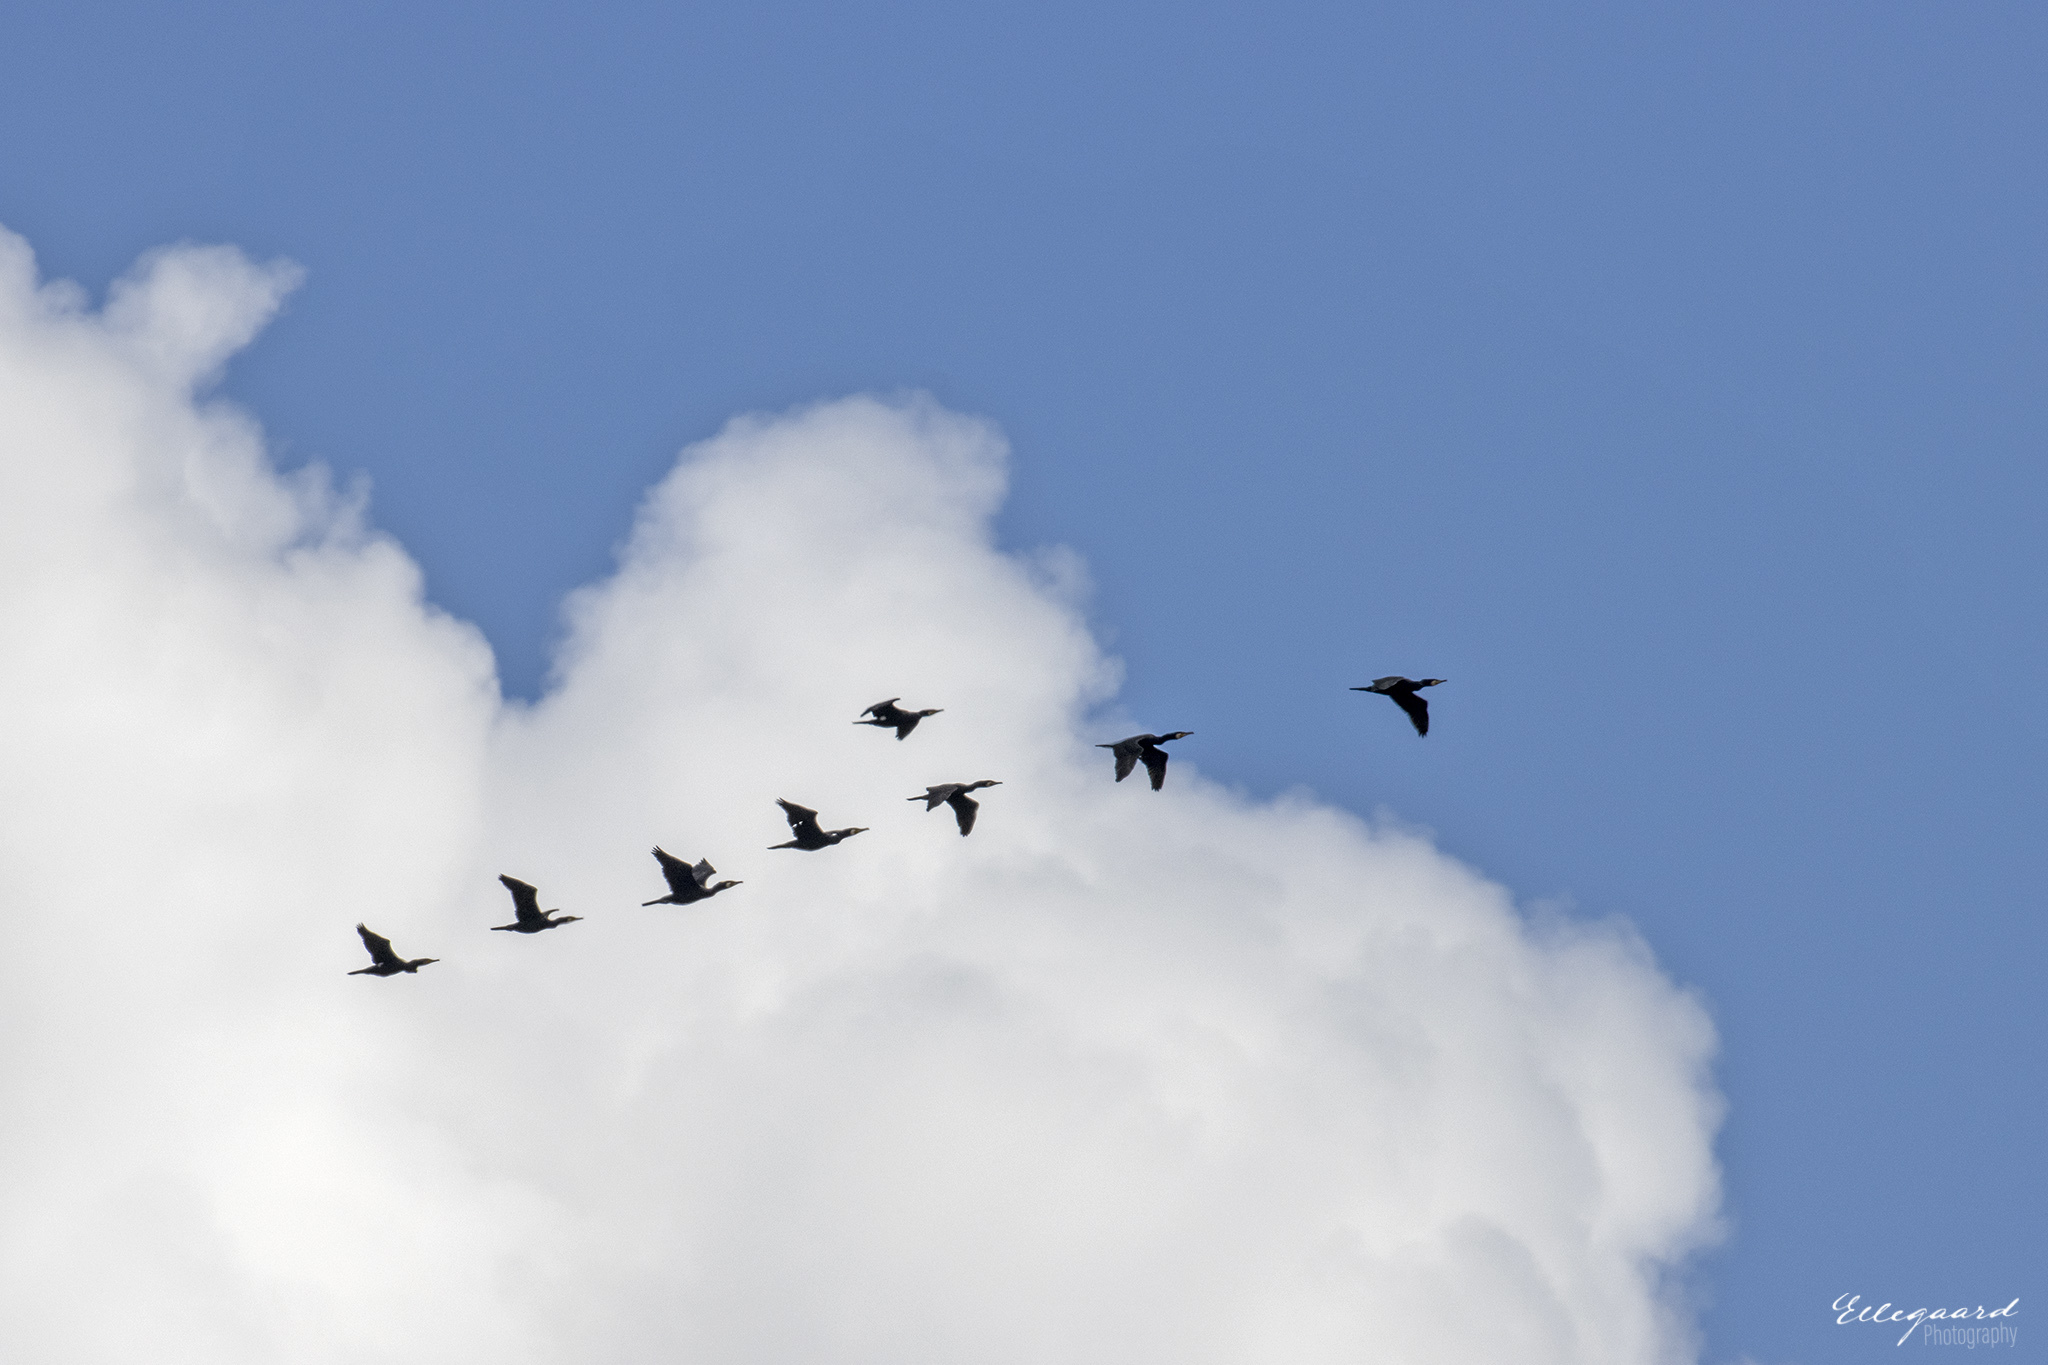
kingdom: Animalia
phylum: Chordata
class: Aves
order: Suliformes
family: Phalacrocoracidae
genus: Phalacrocorax
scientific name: Phalacrocorax carbo
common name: Great cormorant
